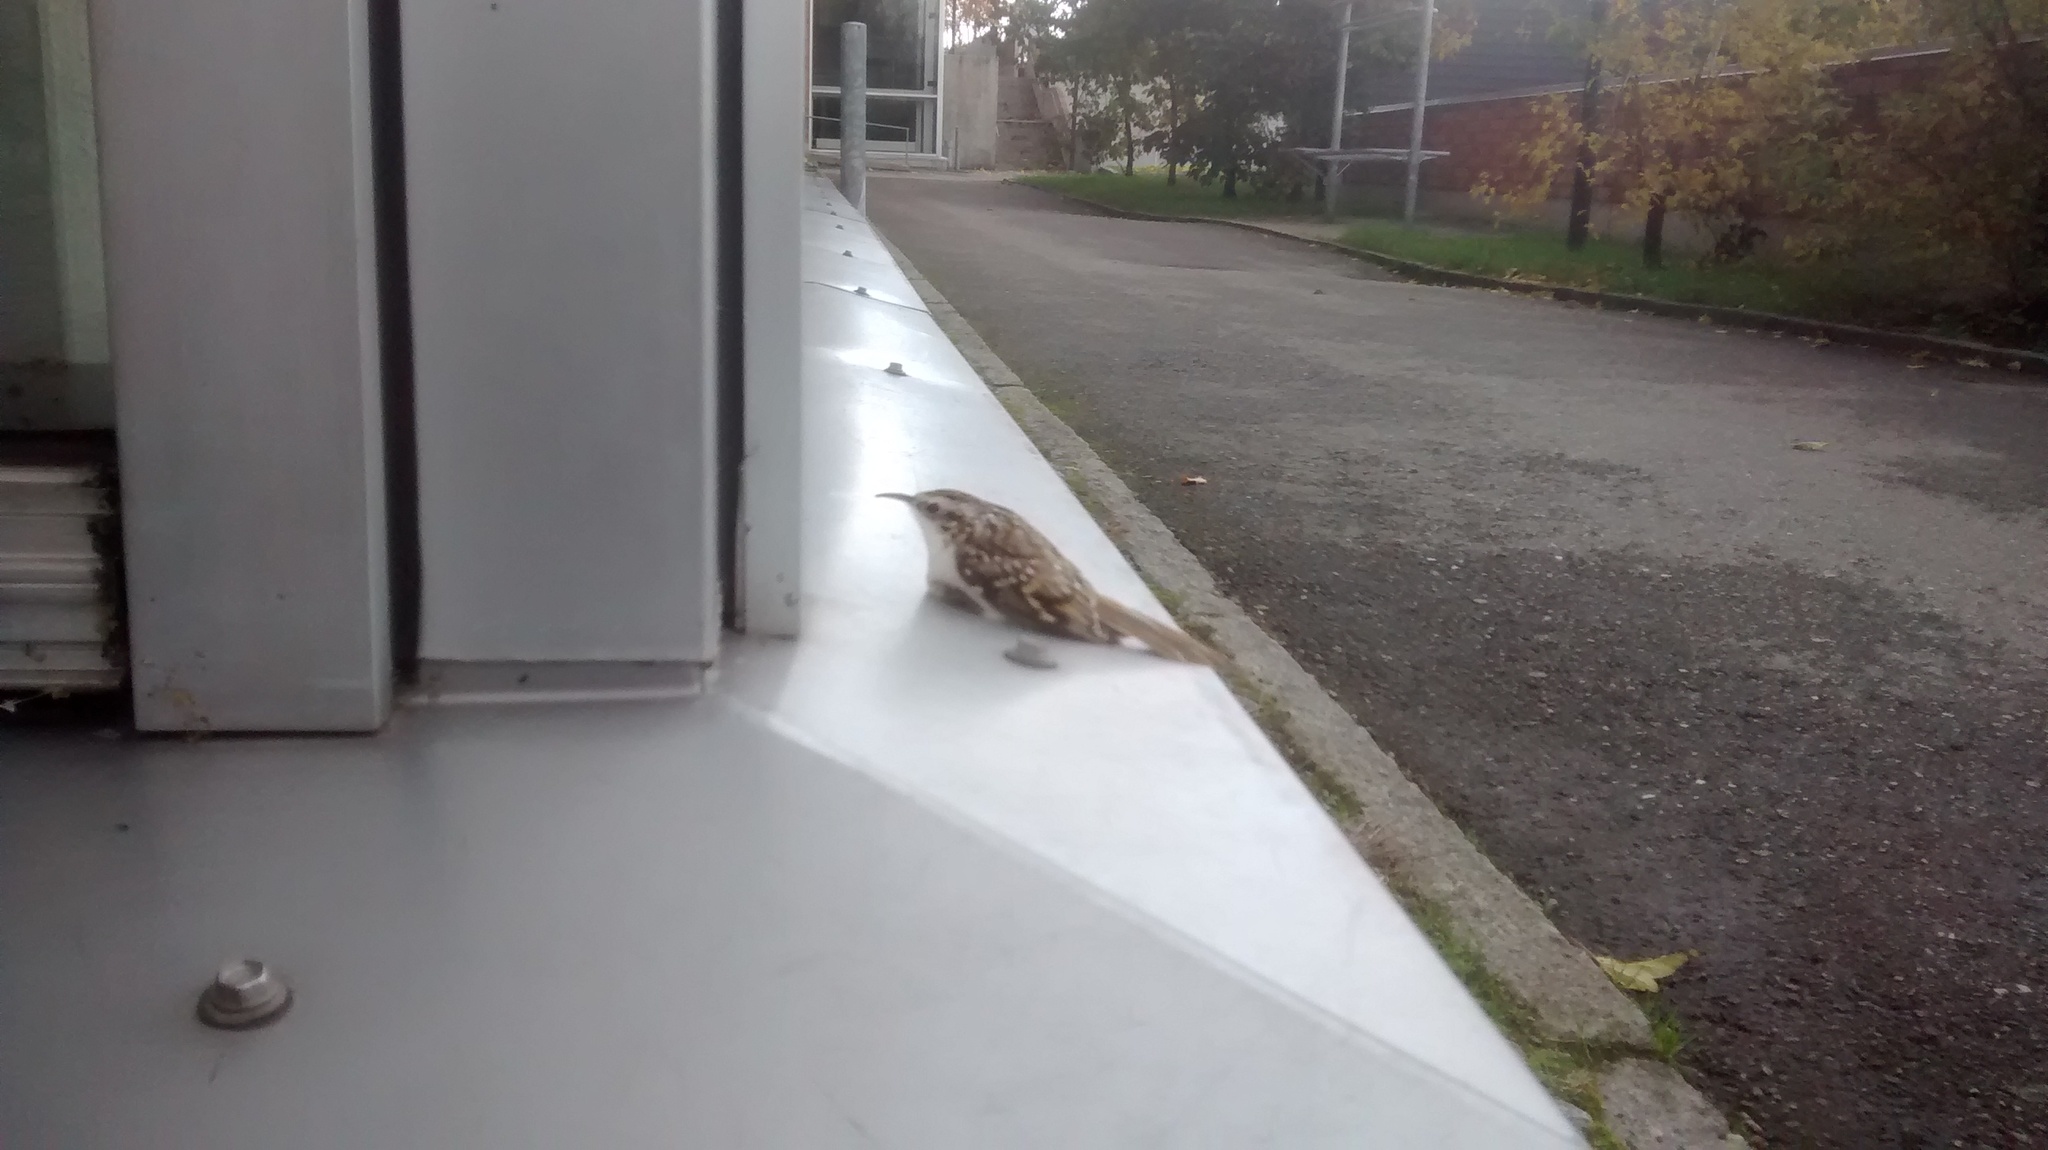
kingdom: Animalia
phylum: Chordata
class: Aves
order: Passeriformes
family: Certhiidae
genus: Certhia
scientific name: Certhia familiaris
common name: Eurasian treecreeper
